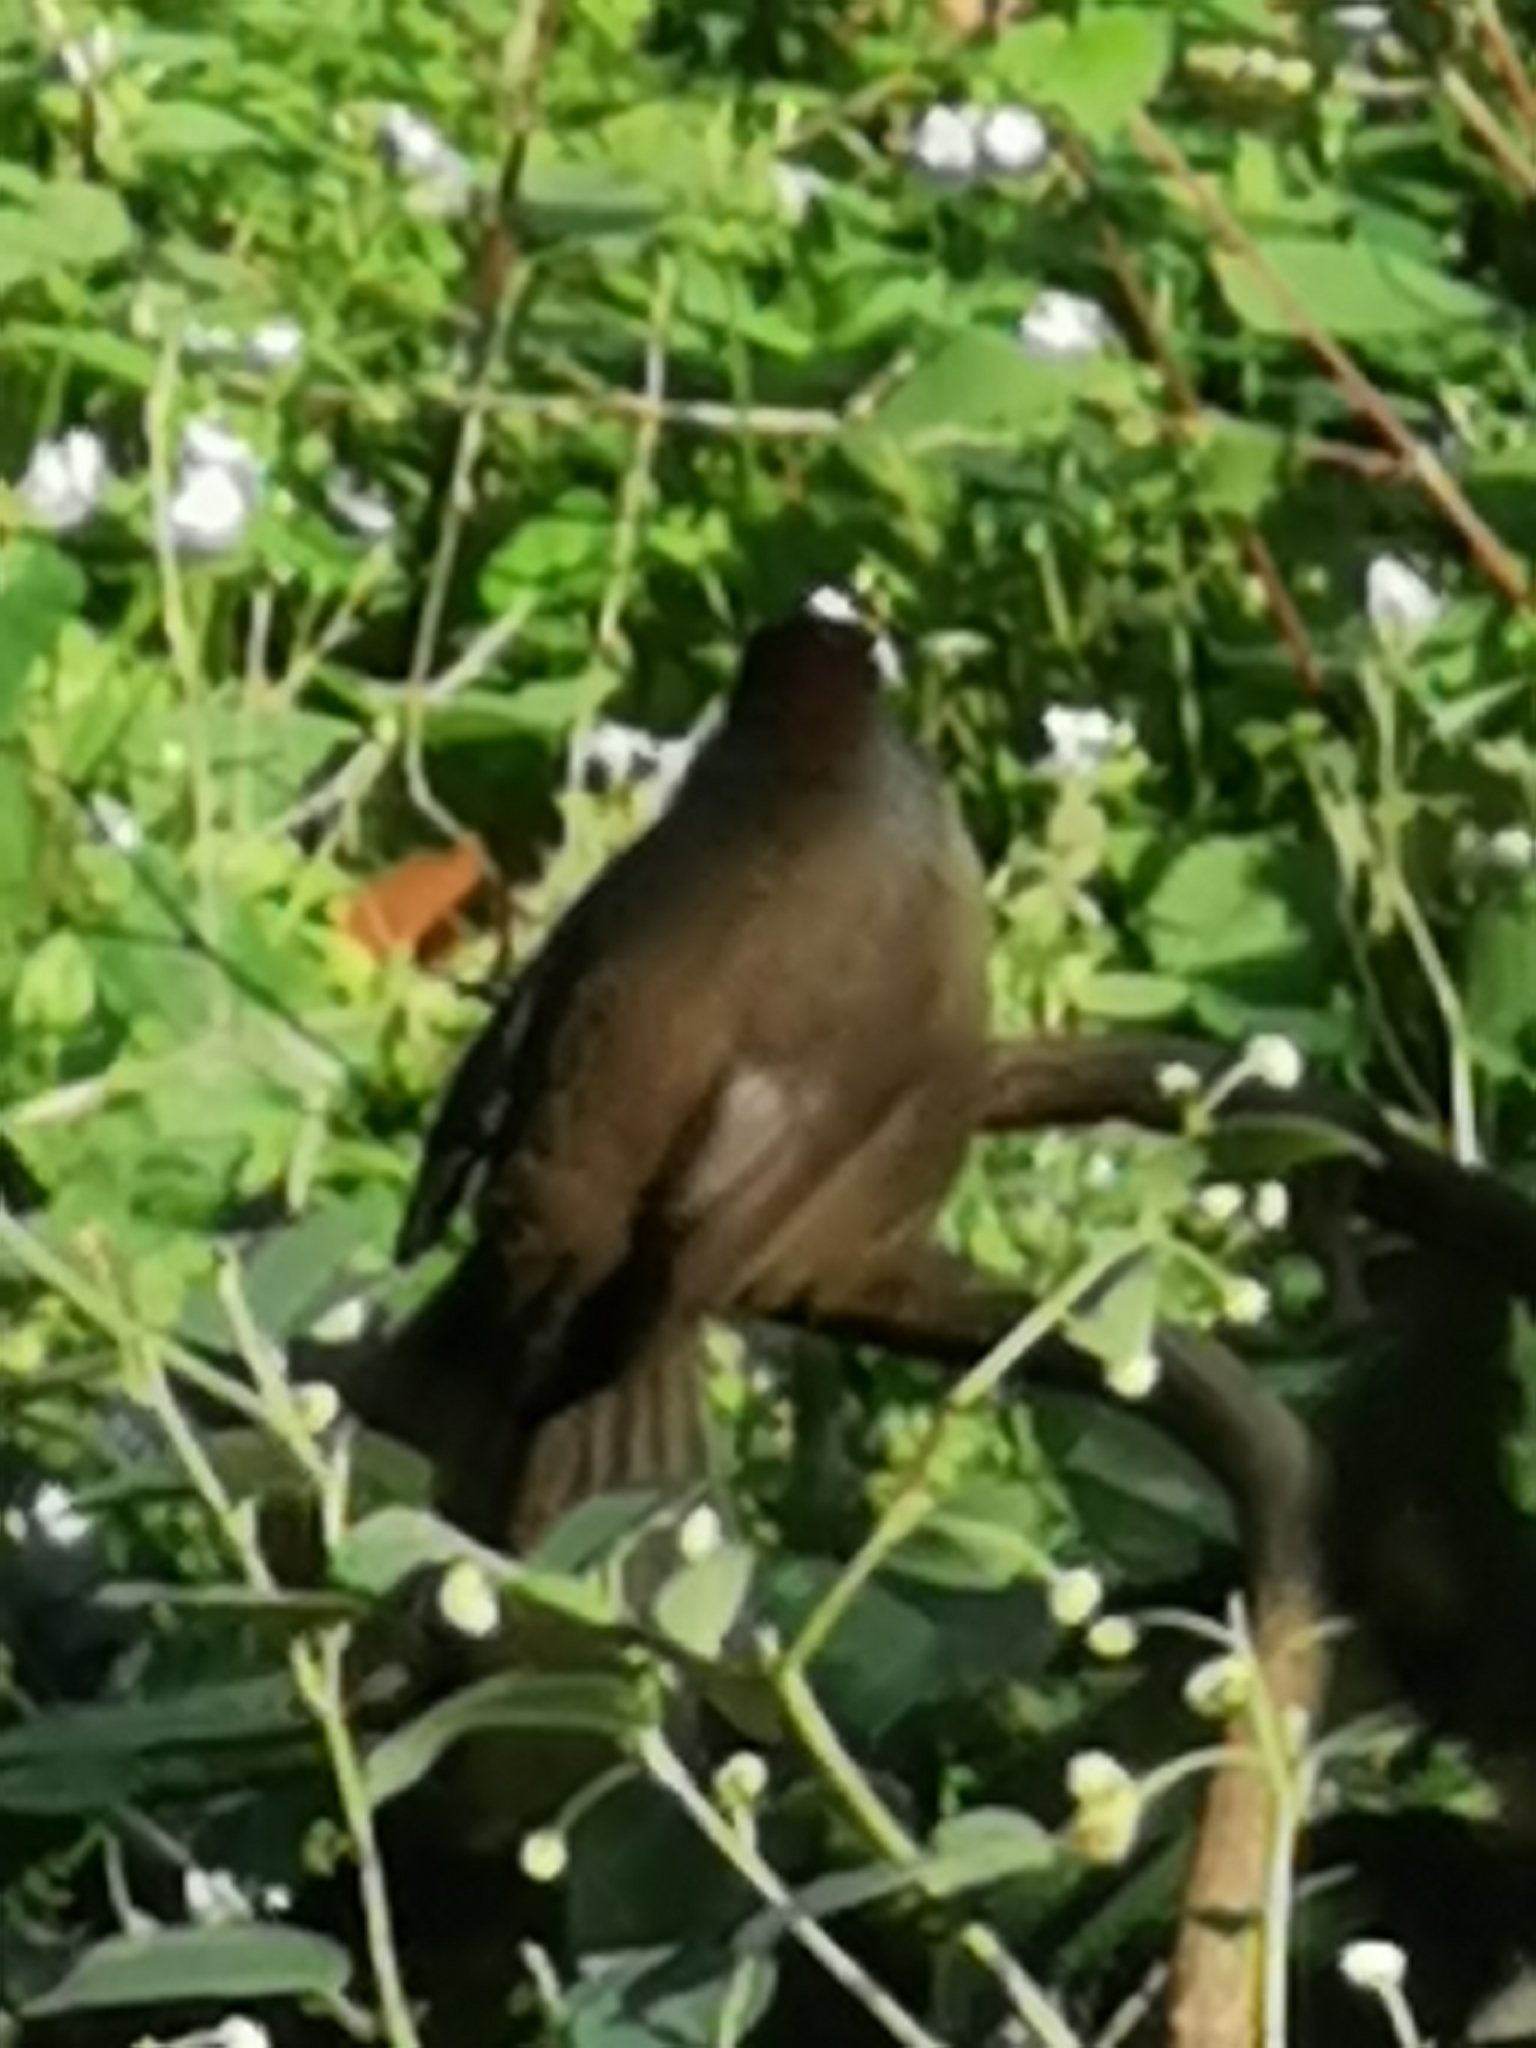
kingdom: Animalia
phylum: Chordata
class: Aves
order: Passeriformes
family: Passerellidae
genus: Atlapetes
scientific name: Atlapetes pileatus
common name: Rufous-capped brush-finch
